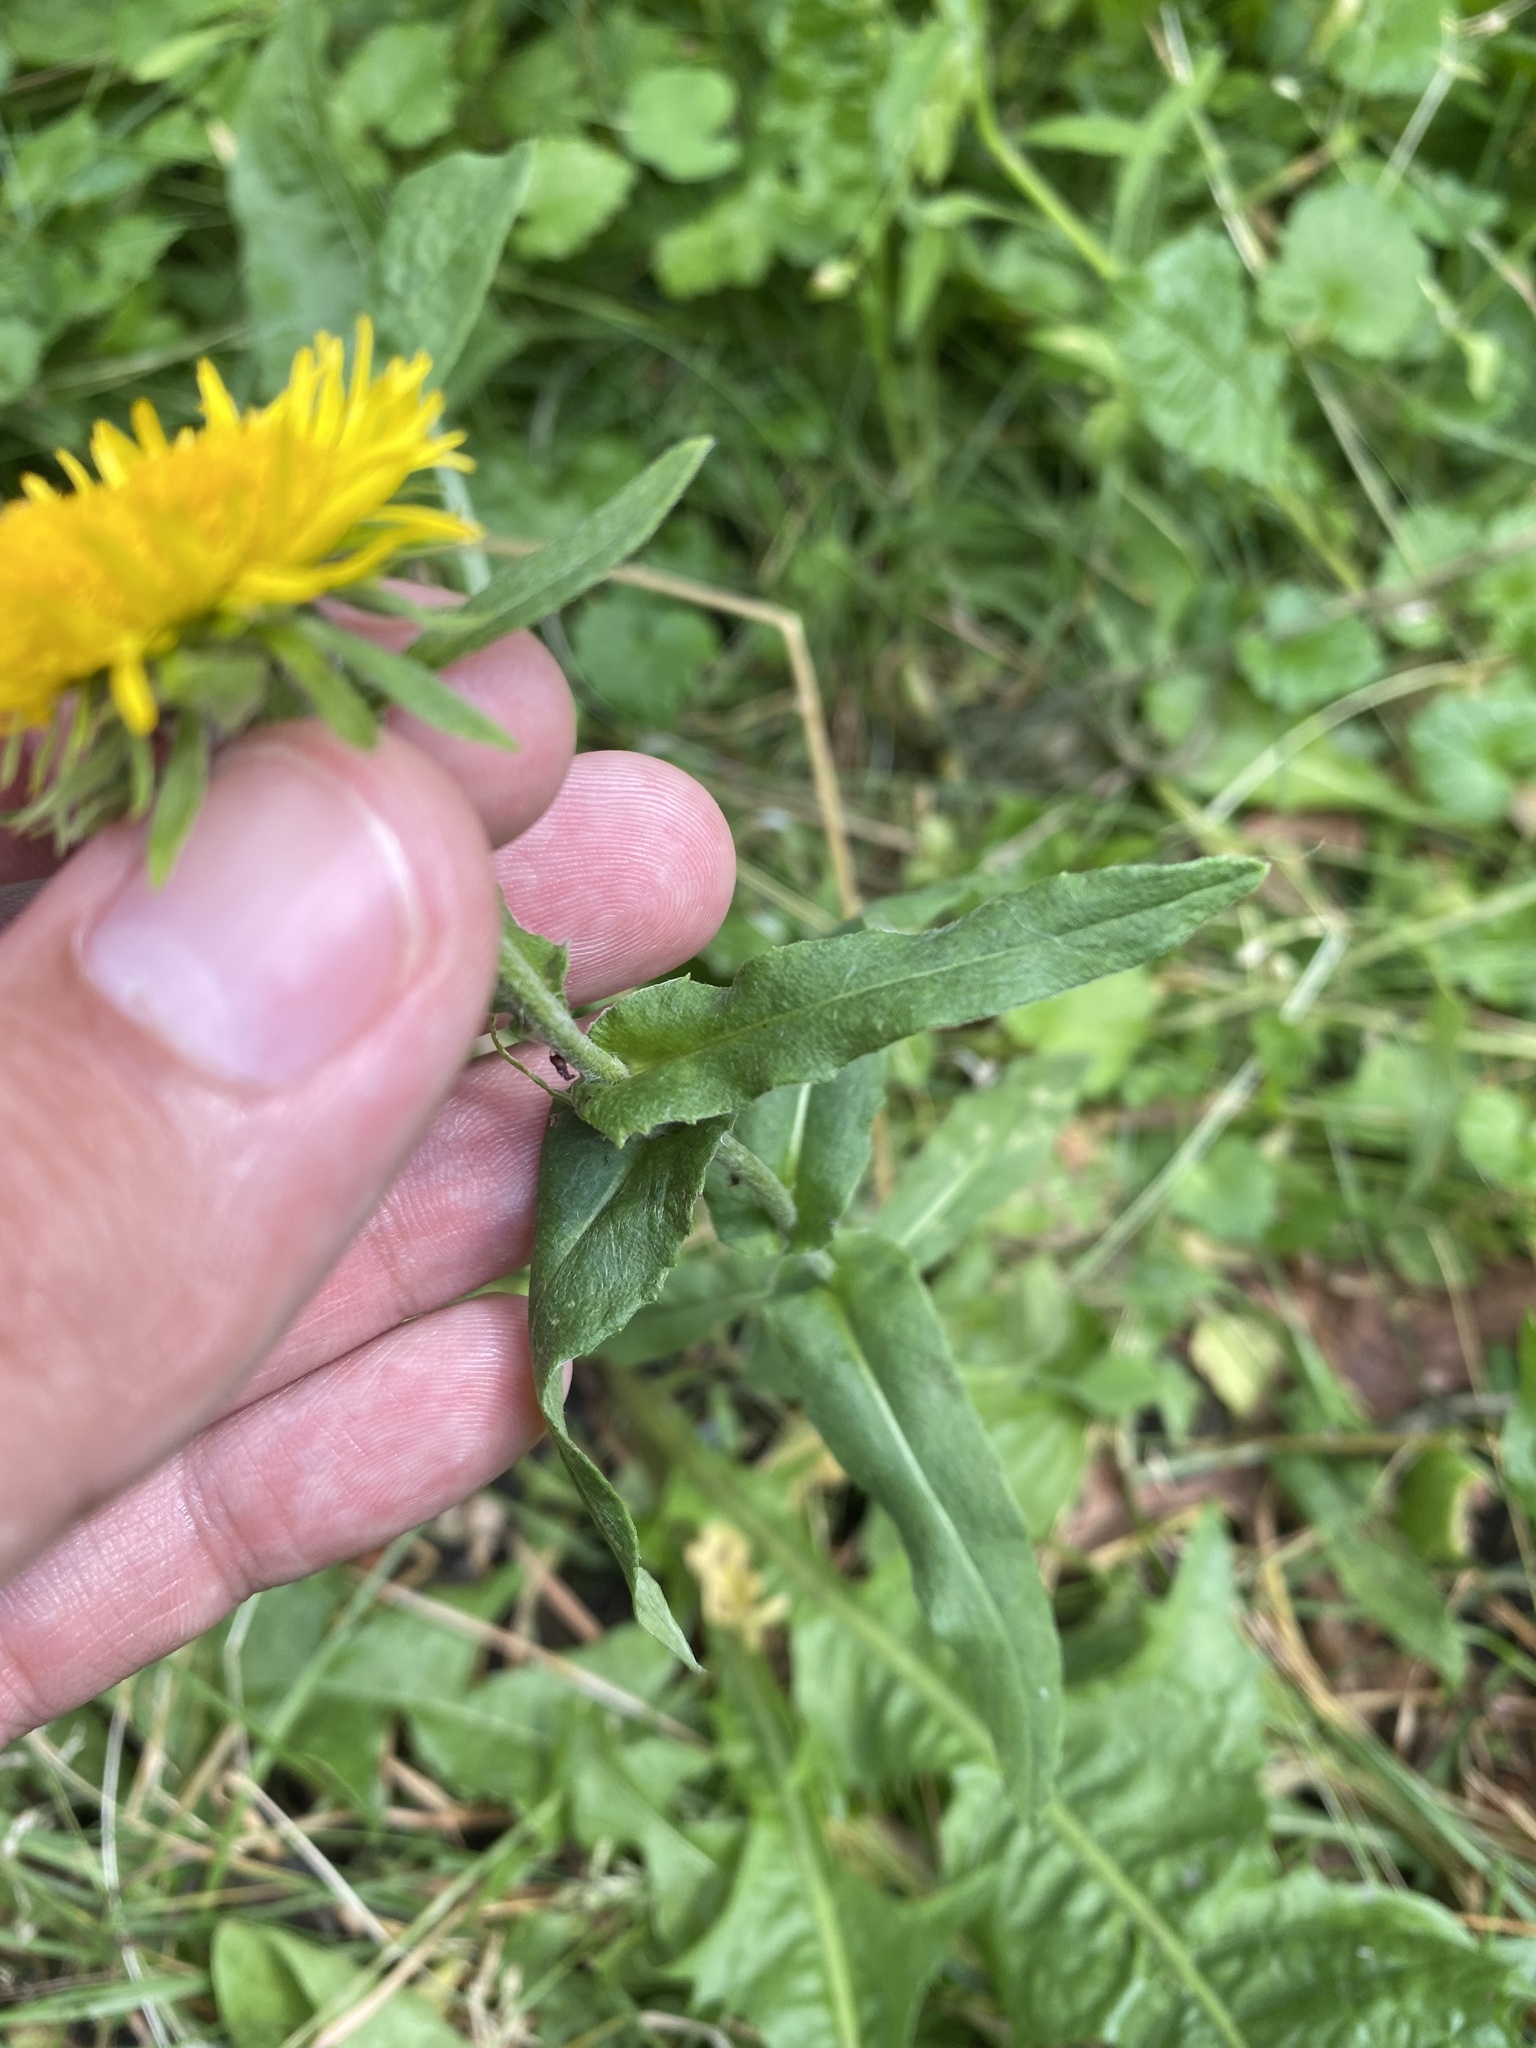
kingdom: Plantae
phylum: Tracheophyta
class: Magnoliopsida
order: Asterales
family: Asteraceae
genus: Pentanema
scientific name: Pentanema britannicum
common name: British elecampane
